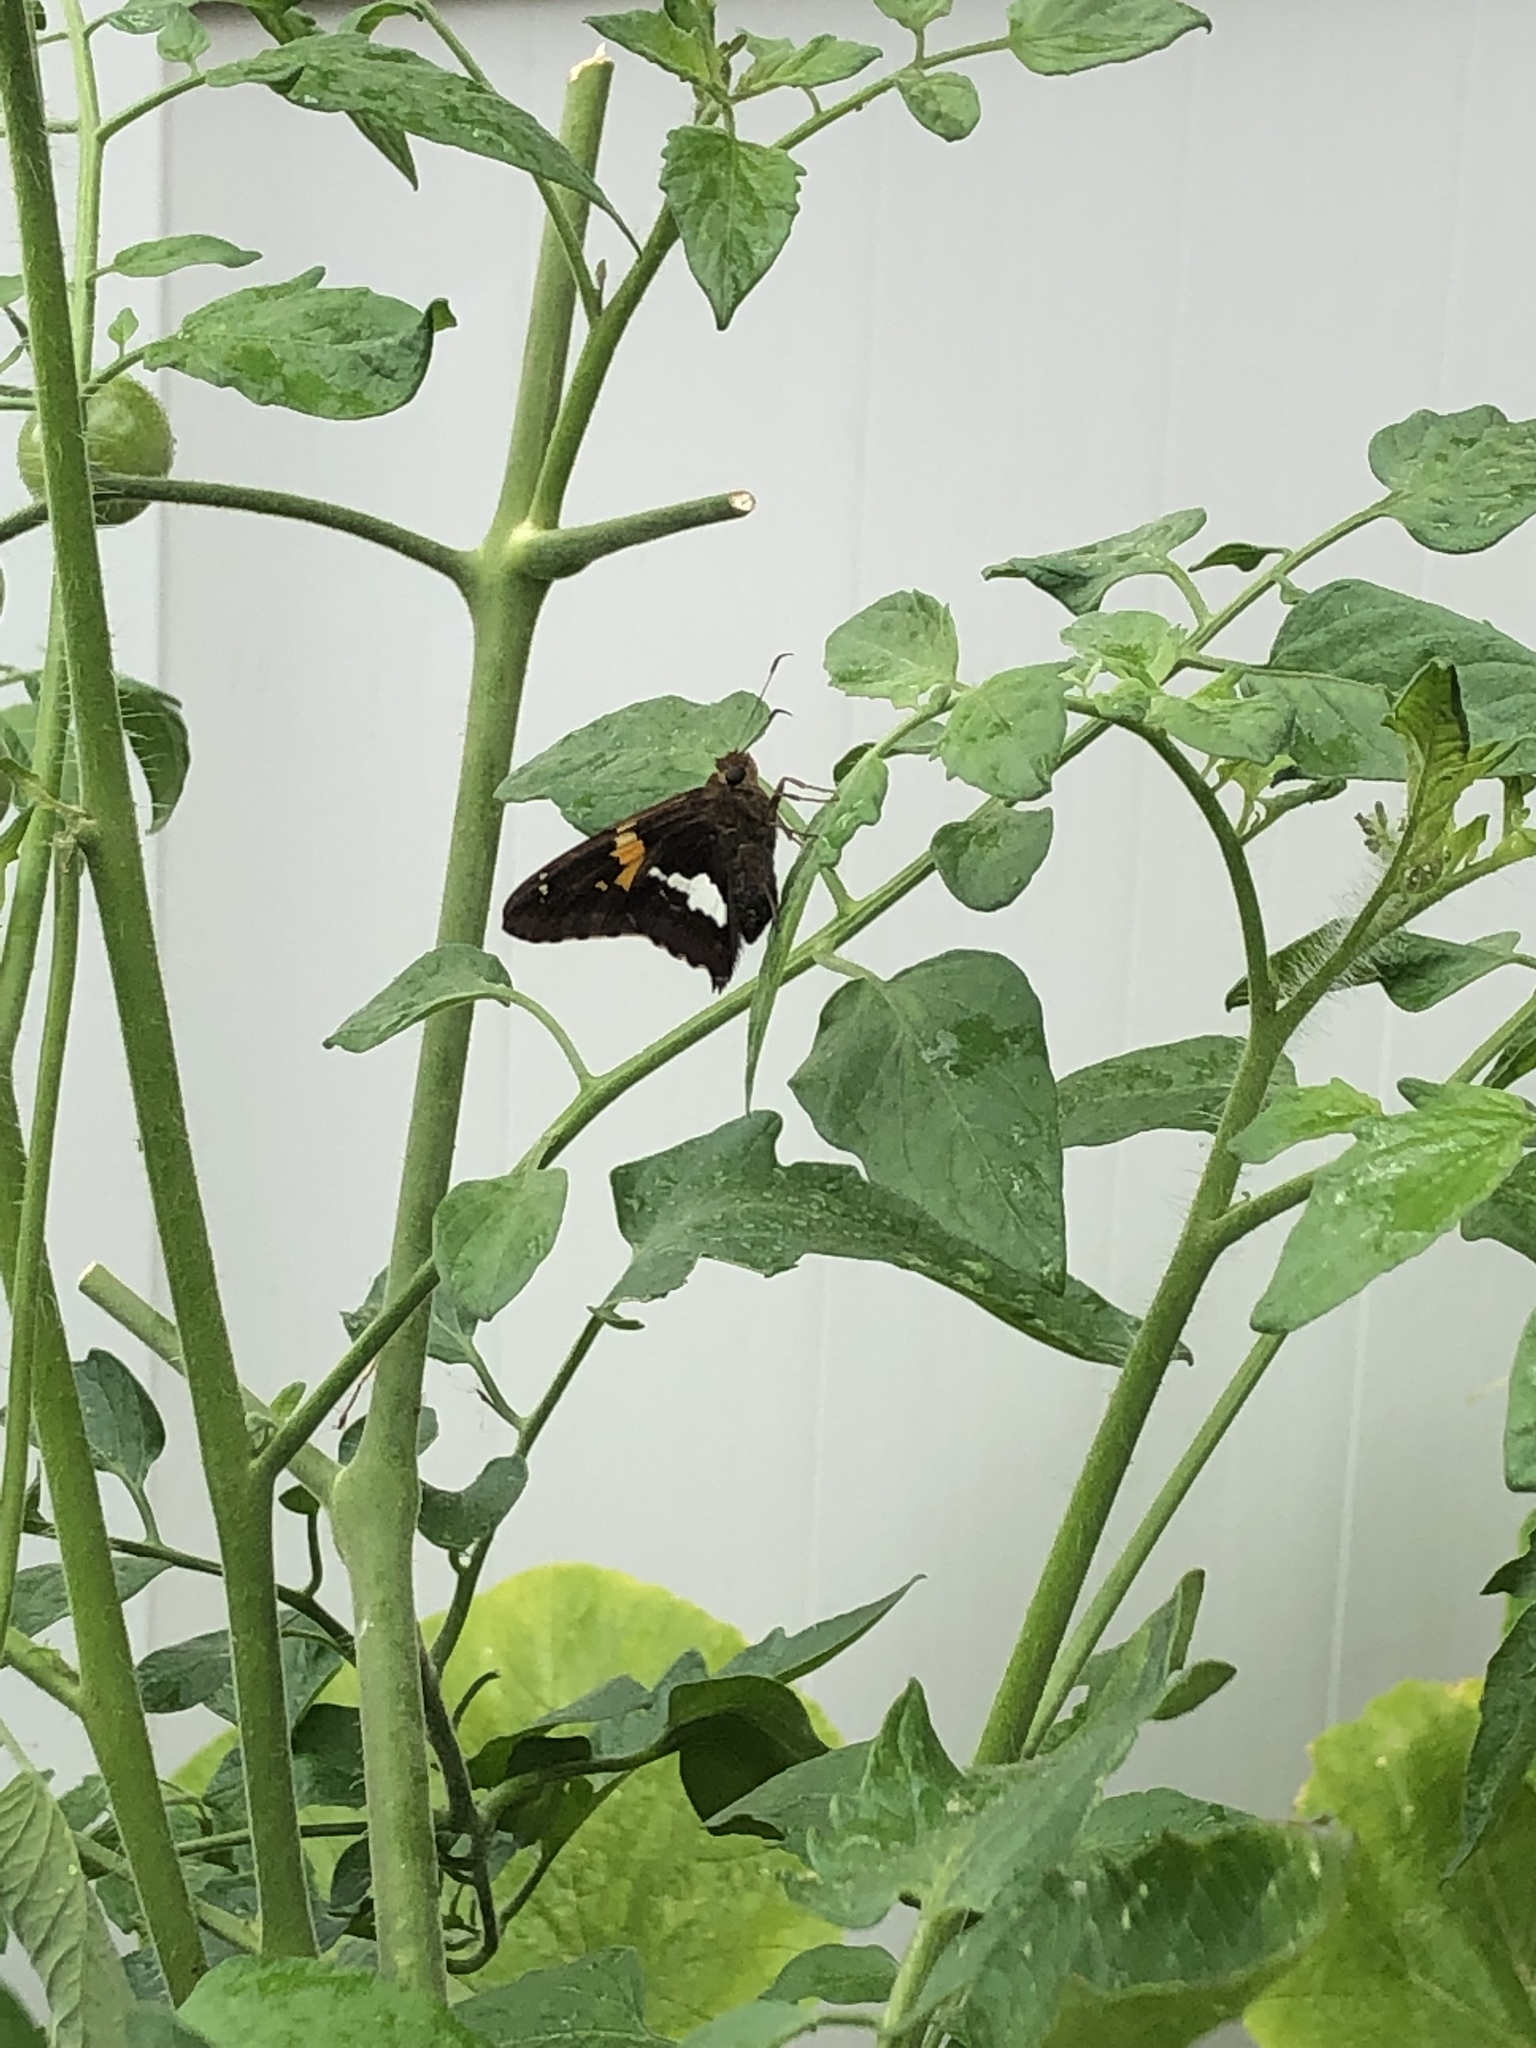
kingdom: Animalia
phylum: Arthropoda
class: Insecta
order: Lepidoptera
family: Hesperiidae
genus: Epargyreus
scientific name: Epargyreus clarus
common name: Silver-spotted skipper
